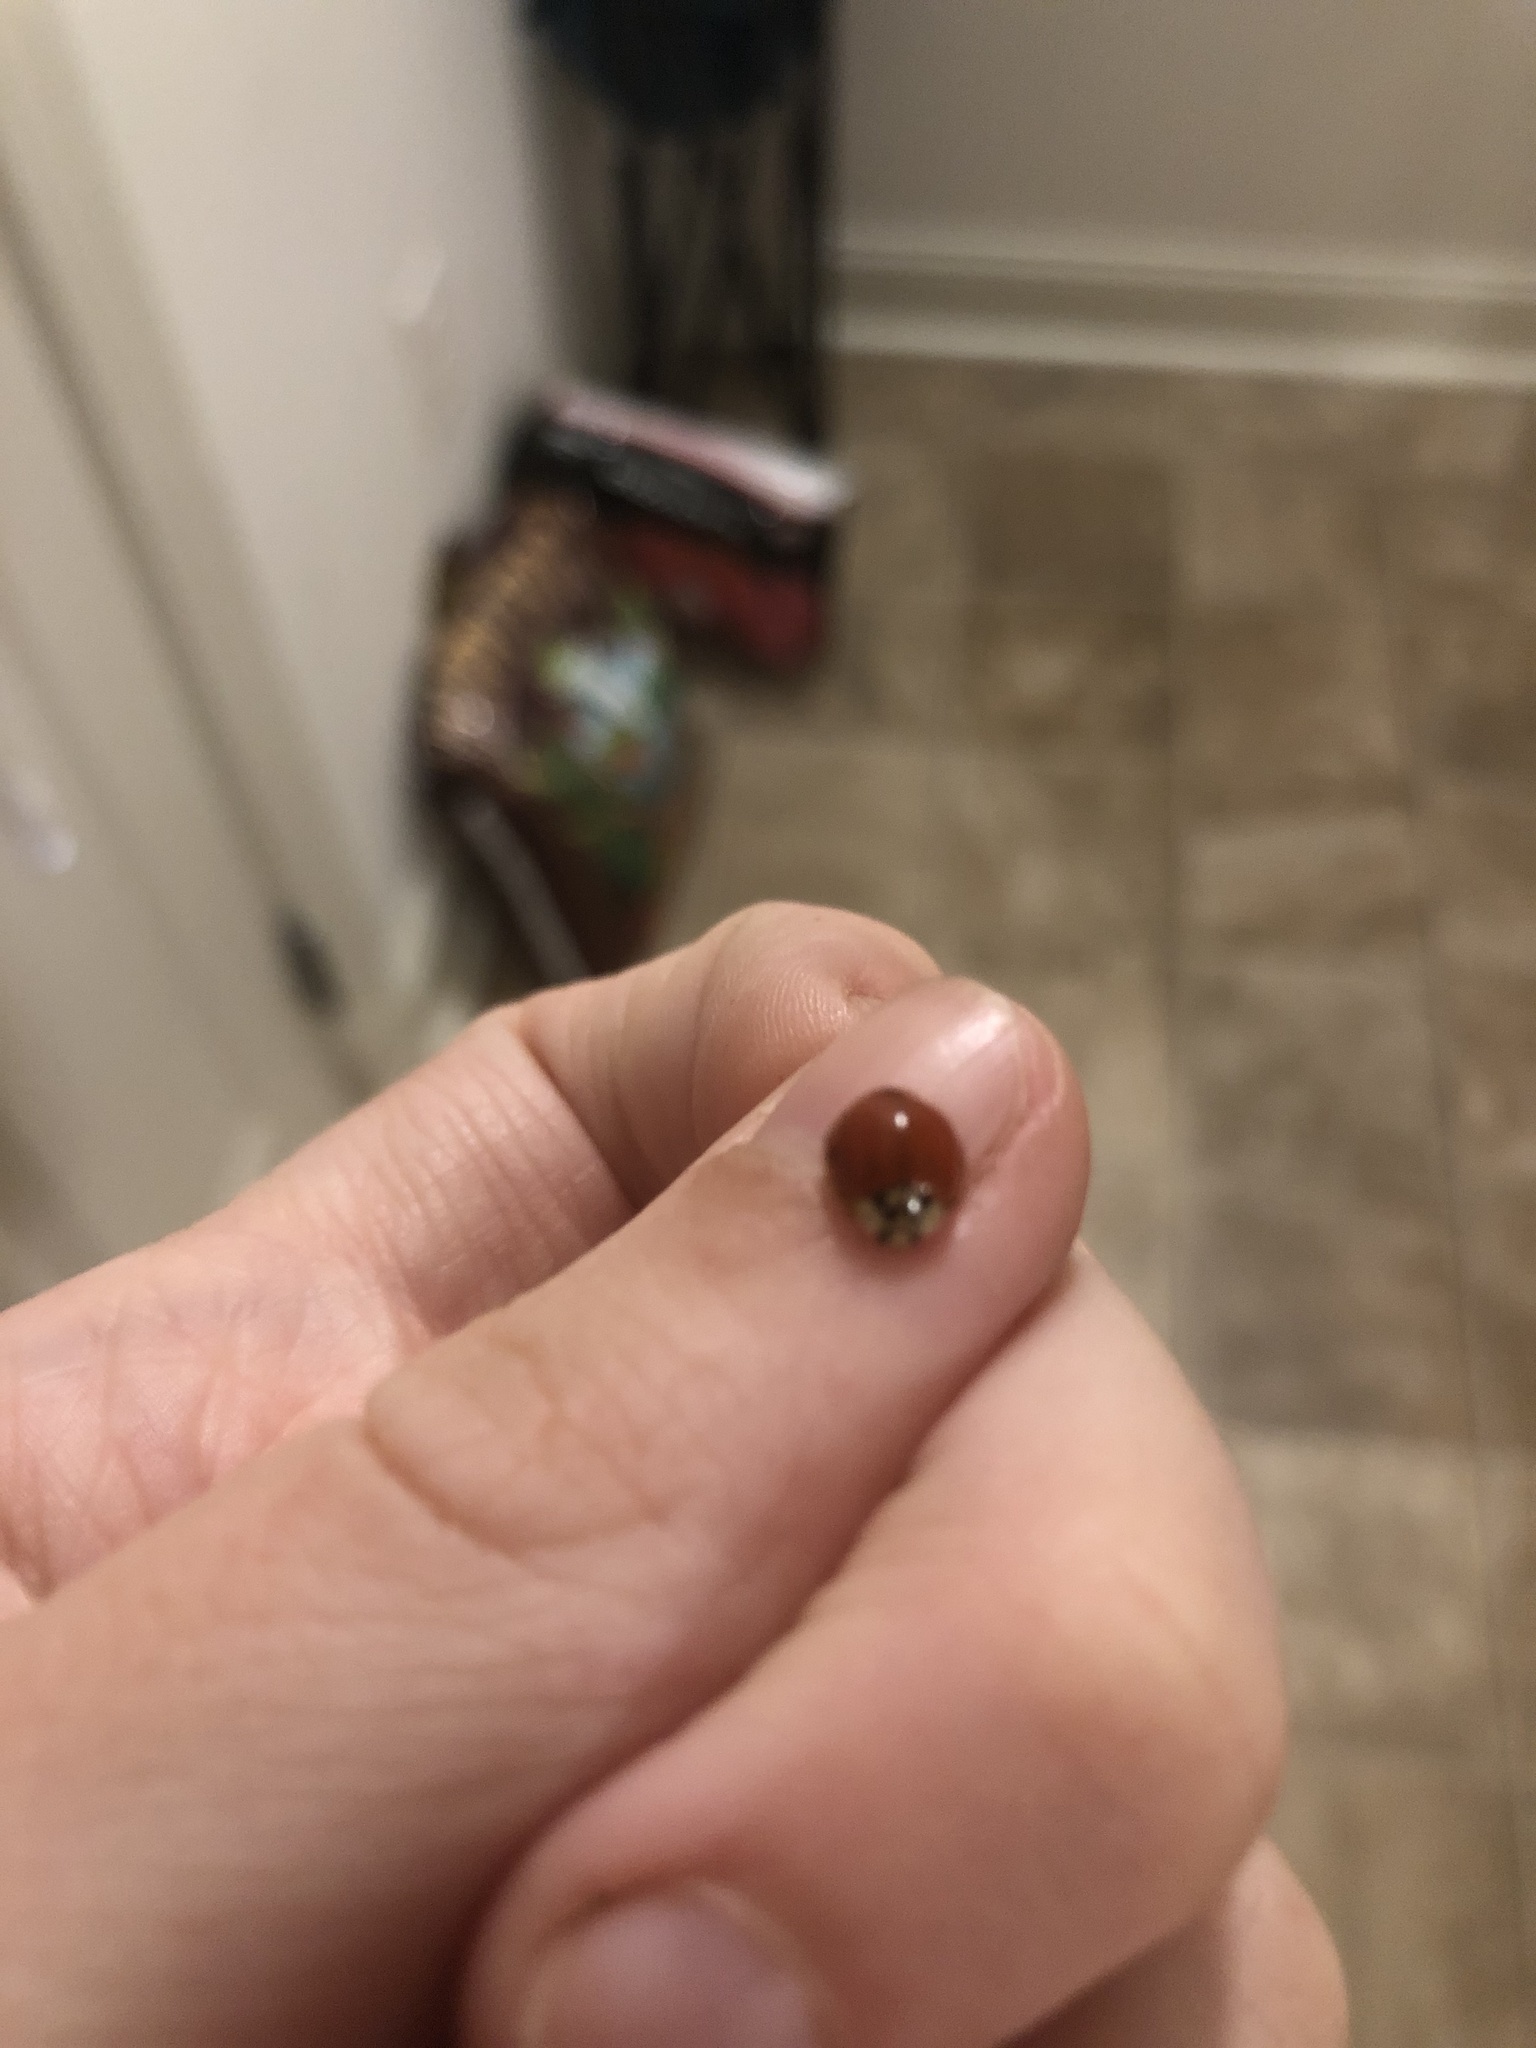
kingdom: Animalia
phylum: Arthropoda
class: Insecta
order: Coleoptera
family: Coccinellidae
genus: Harmonia
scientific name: Harmonia axyridis
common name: Harlequin ladybird
